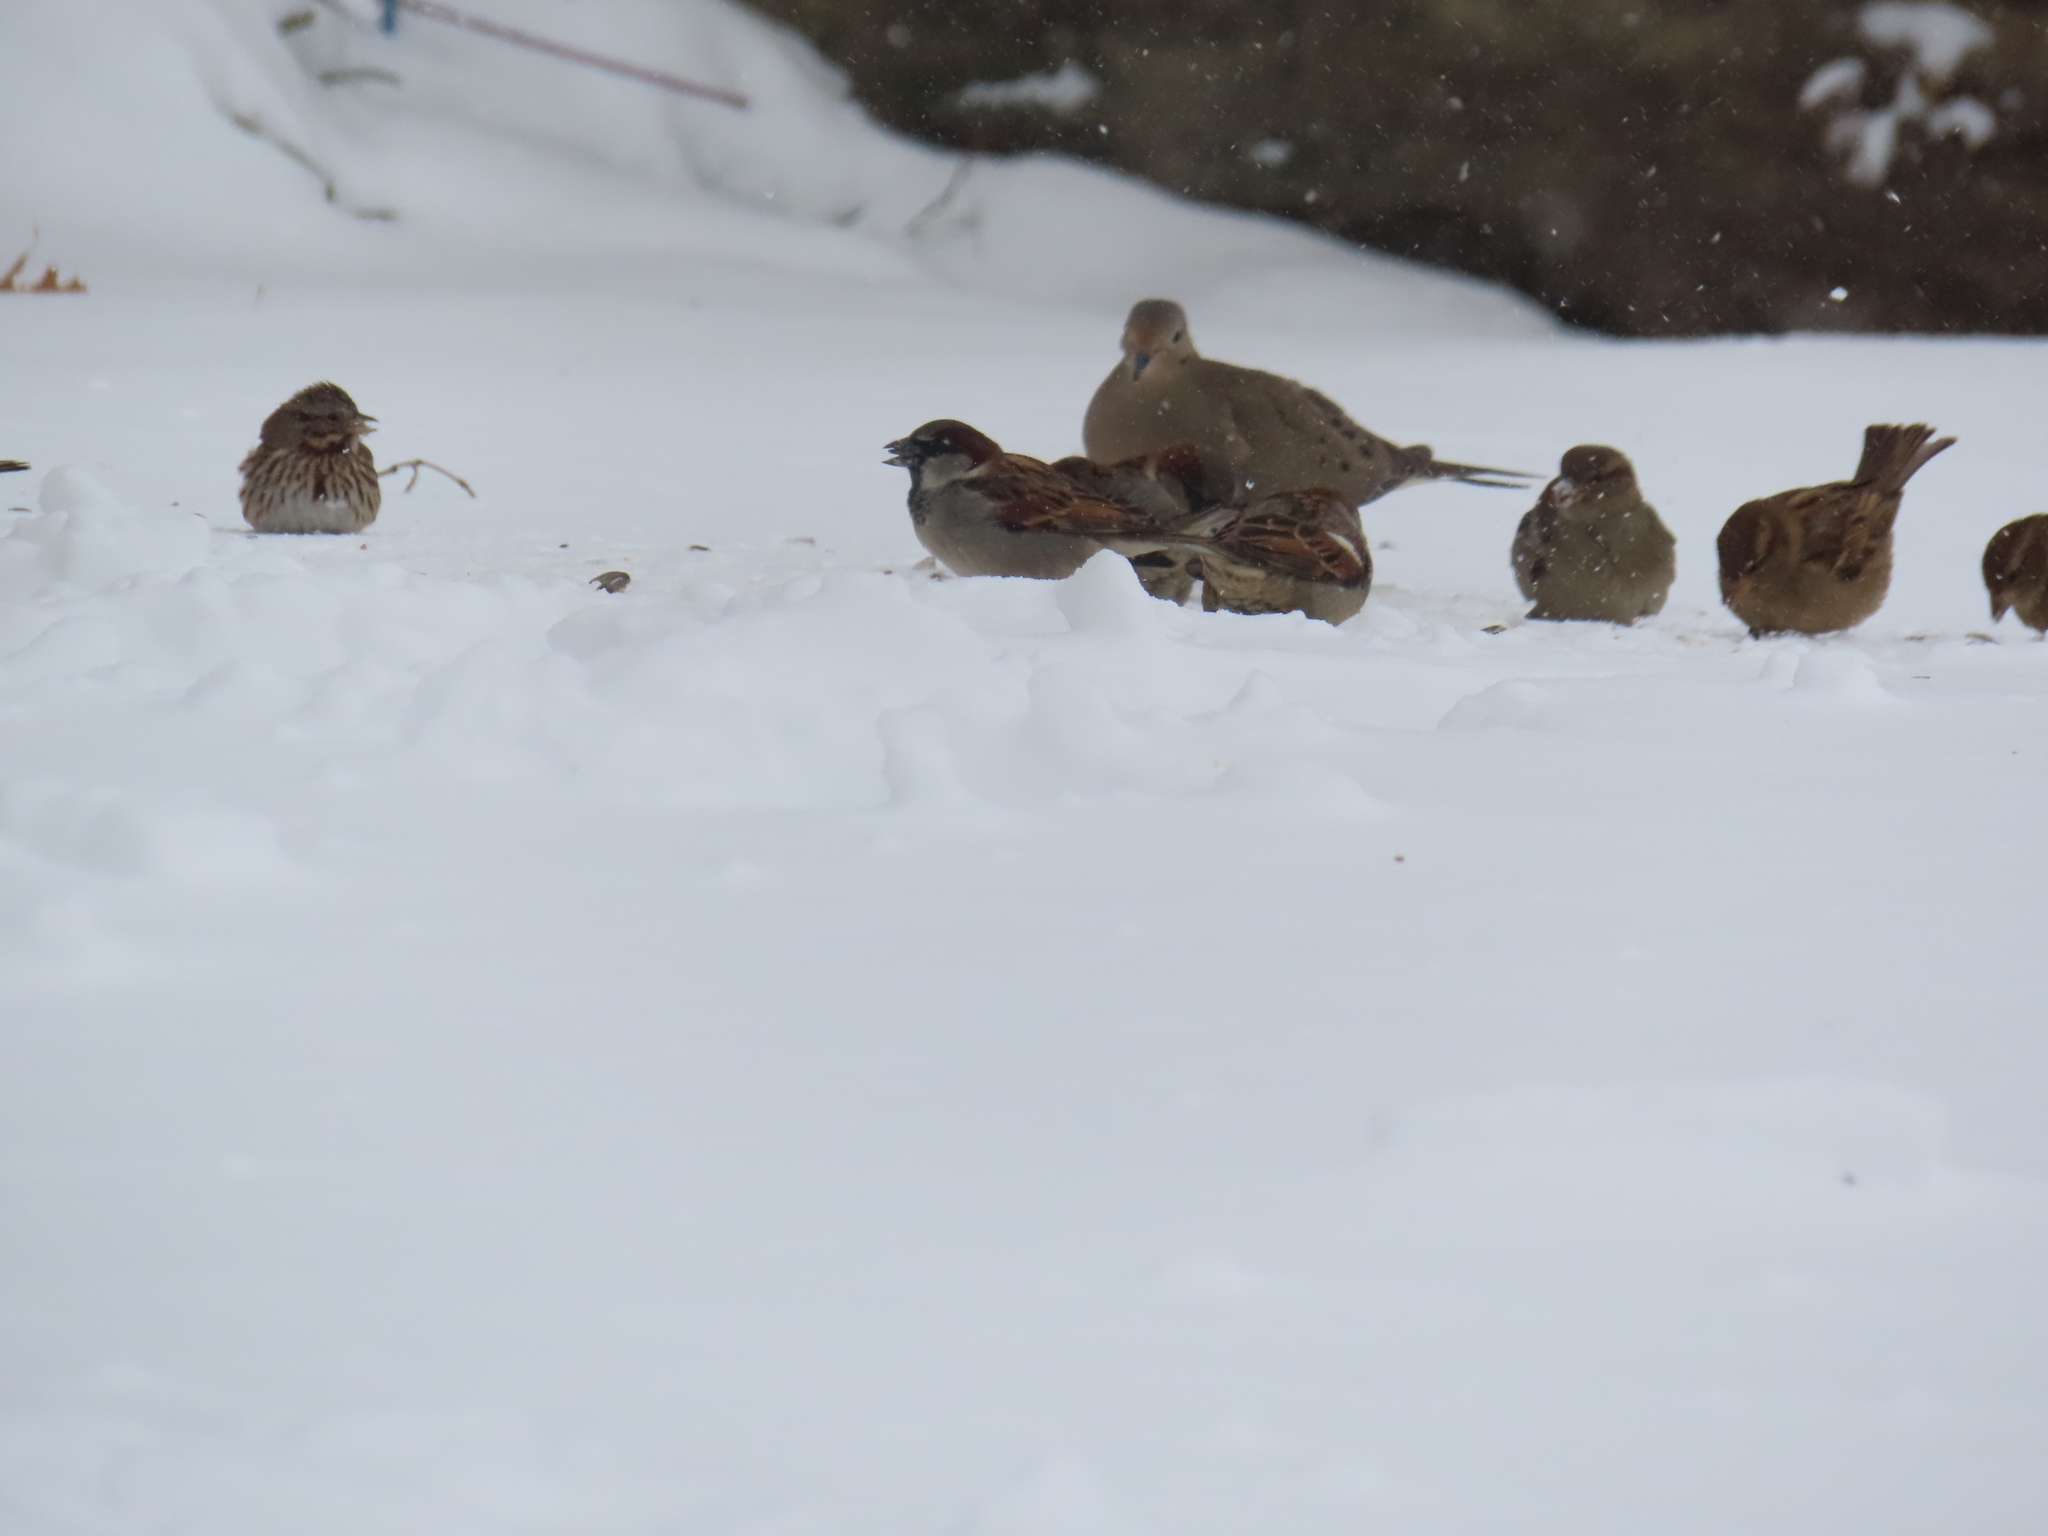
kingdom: Animalia
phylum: Chordata
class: Aves
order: Passeriformes
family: Passeridae
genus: Passer
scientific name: Passer domesticus
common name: House sparrow
